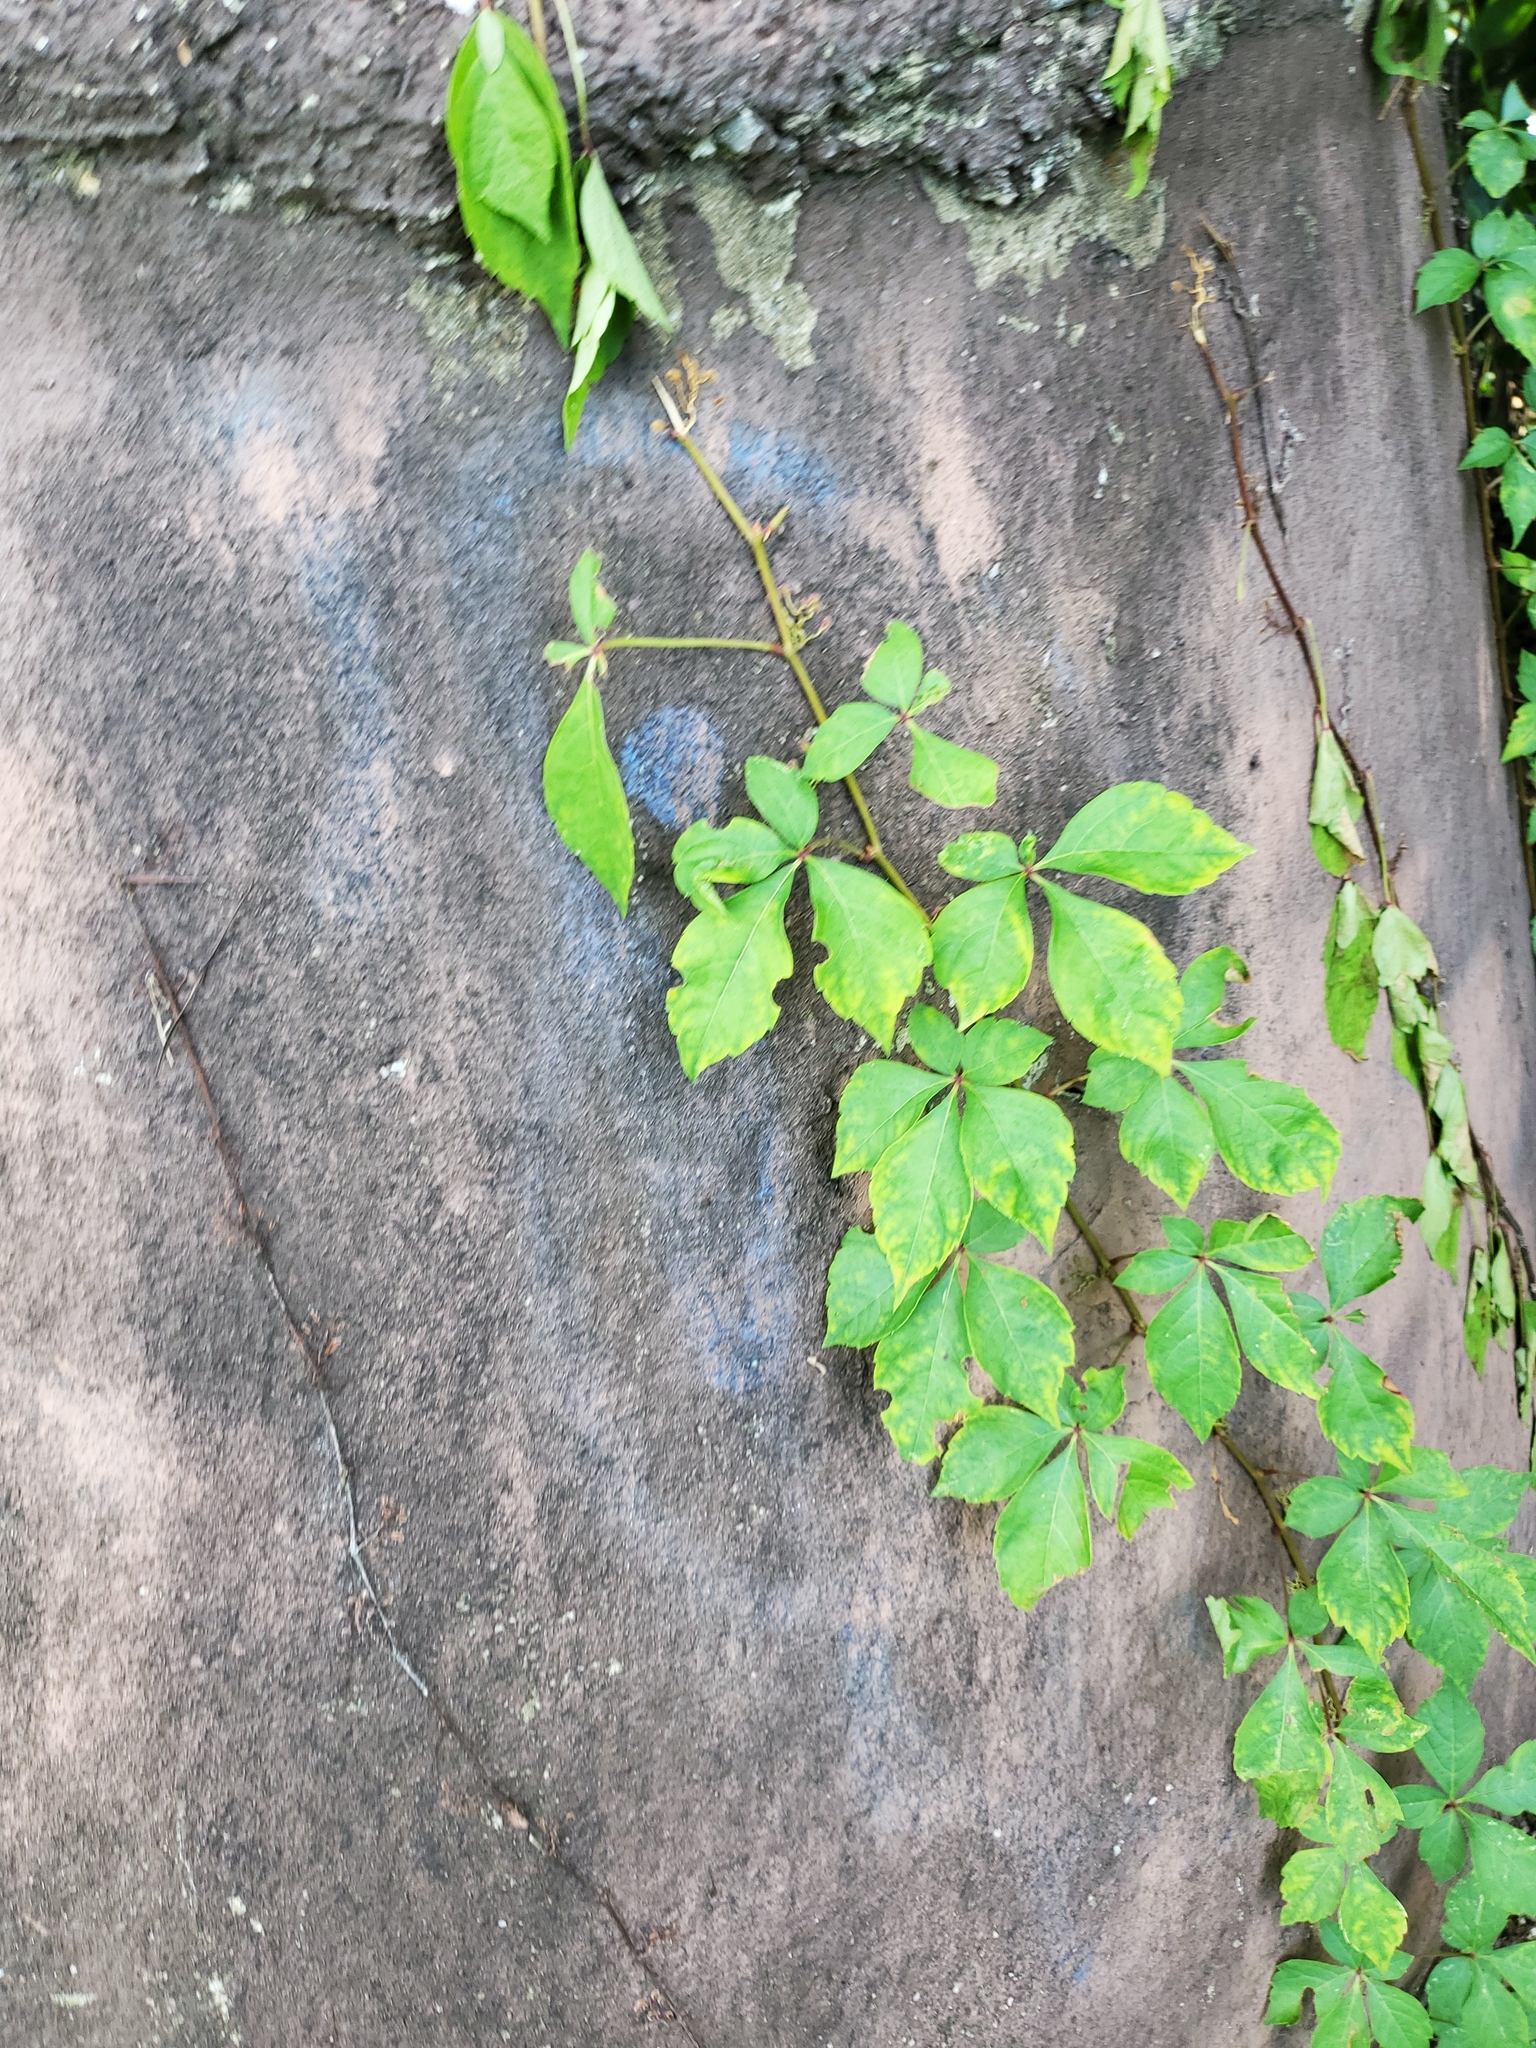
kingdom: Plantae
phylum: Tracheophyta
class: Magnoliopsida
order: Vitales
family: Vitaceae
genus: Parthenocissus
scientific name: Parthenocissus quinquefolia
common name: Virginia-creeper
